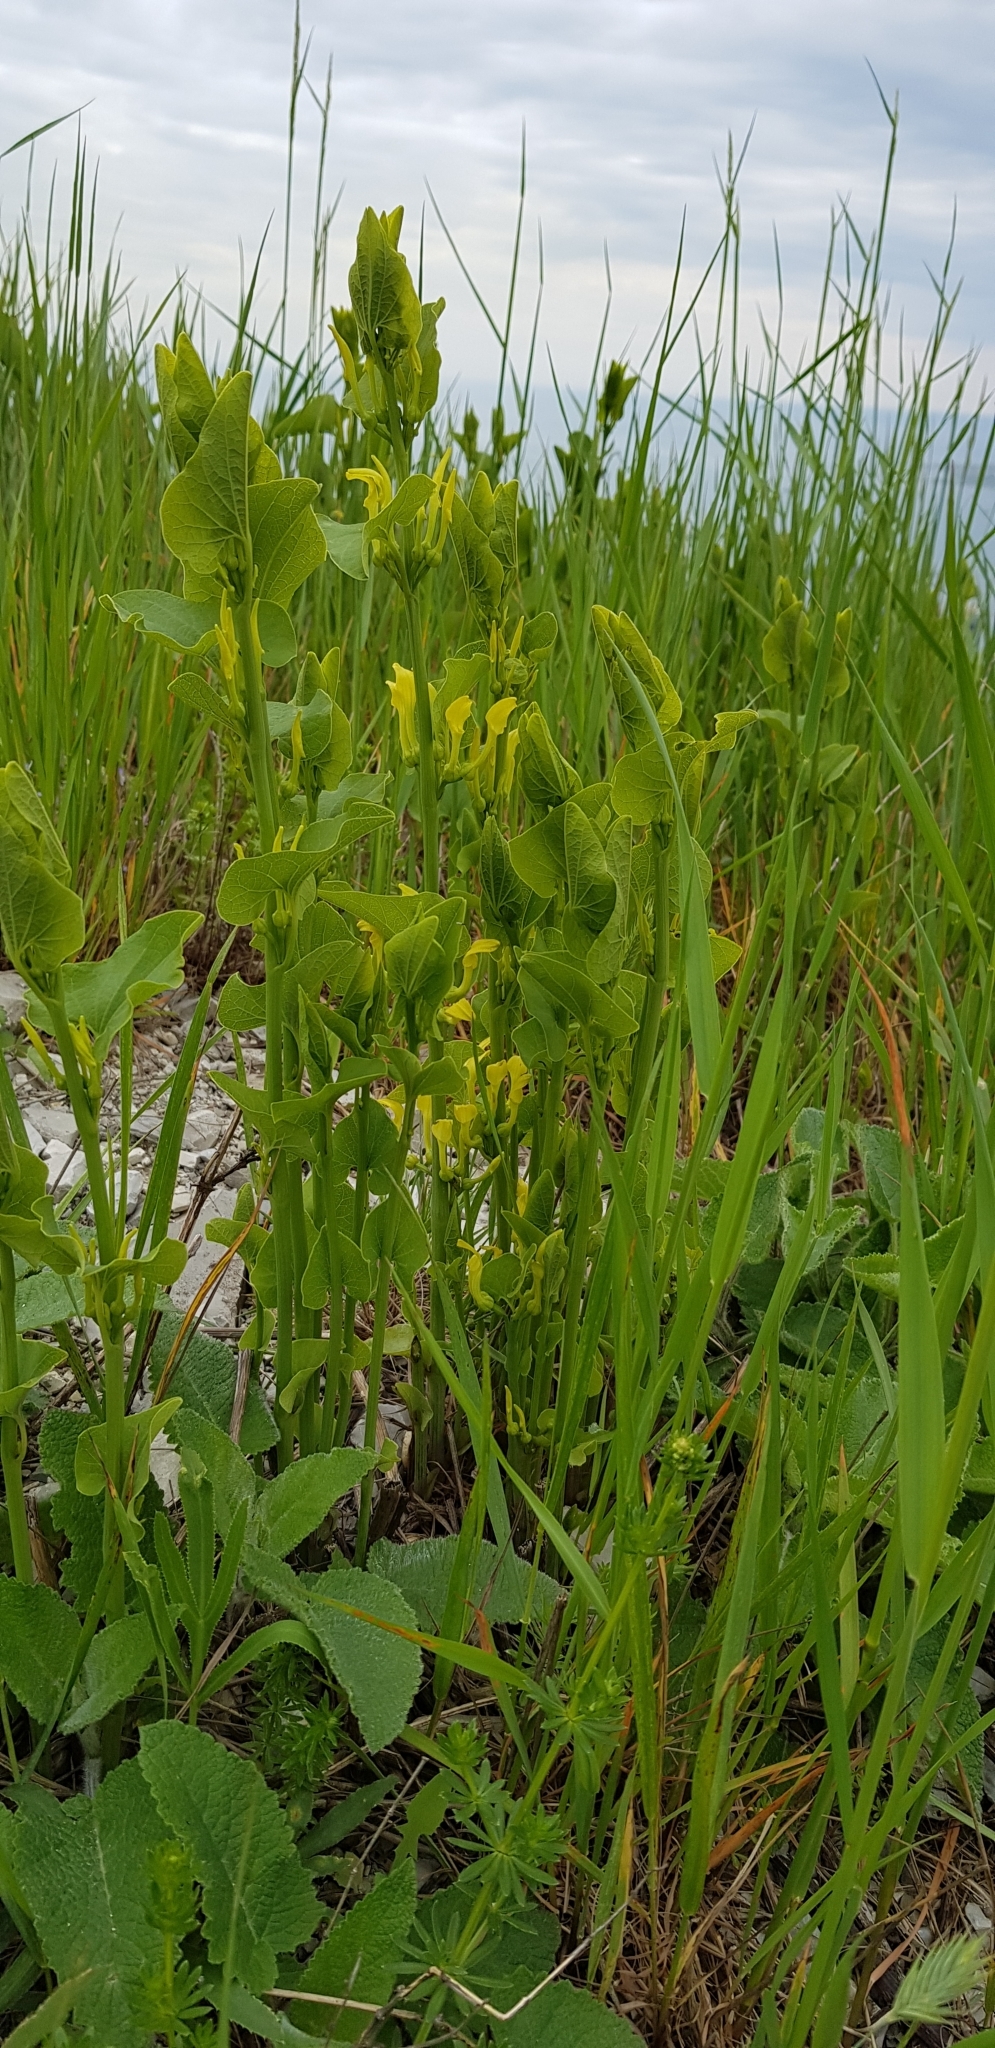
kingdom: Plantae
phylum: Tracheophyta
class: Magnoliopsida
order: Piperales
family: Aristolochiaceae
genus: Aristolochia
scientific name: Aristolochia clematitis
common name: Birthwort
